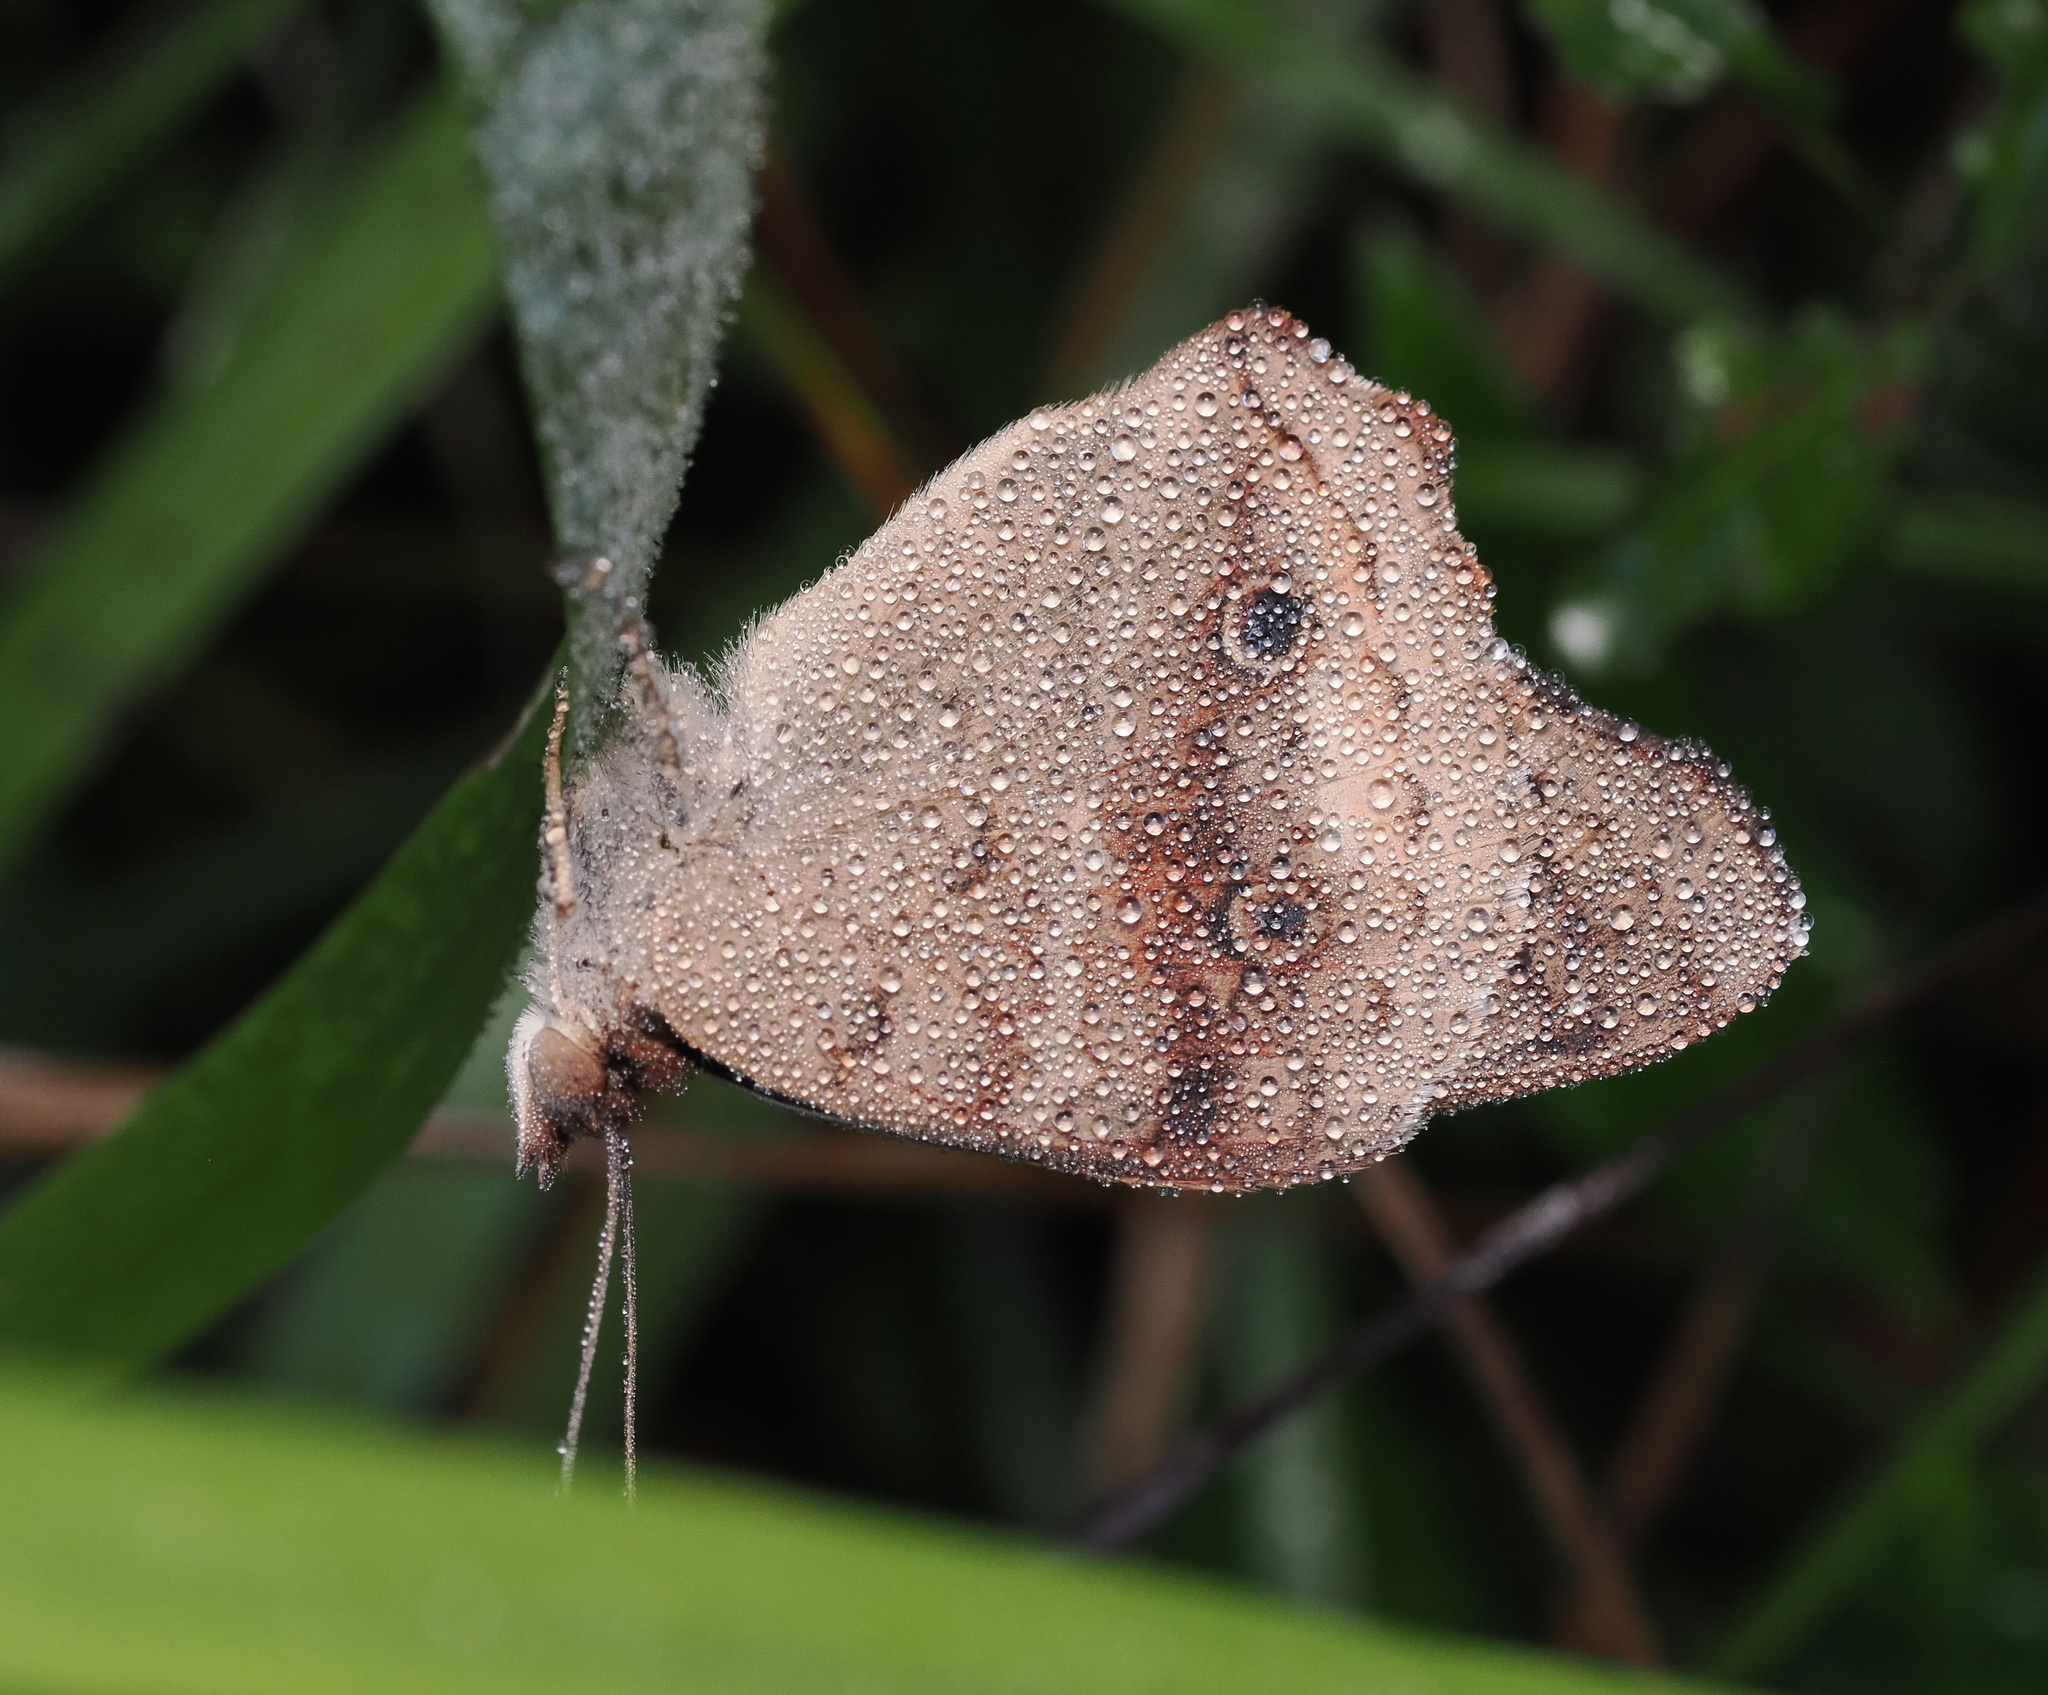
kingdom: Animalia
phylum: Arthropoda
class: Insecta
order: Lepidoptera
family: Nymphalidae
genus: Junonia
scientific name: Junonia coenia
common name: Common buckeye
